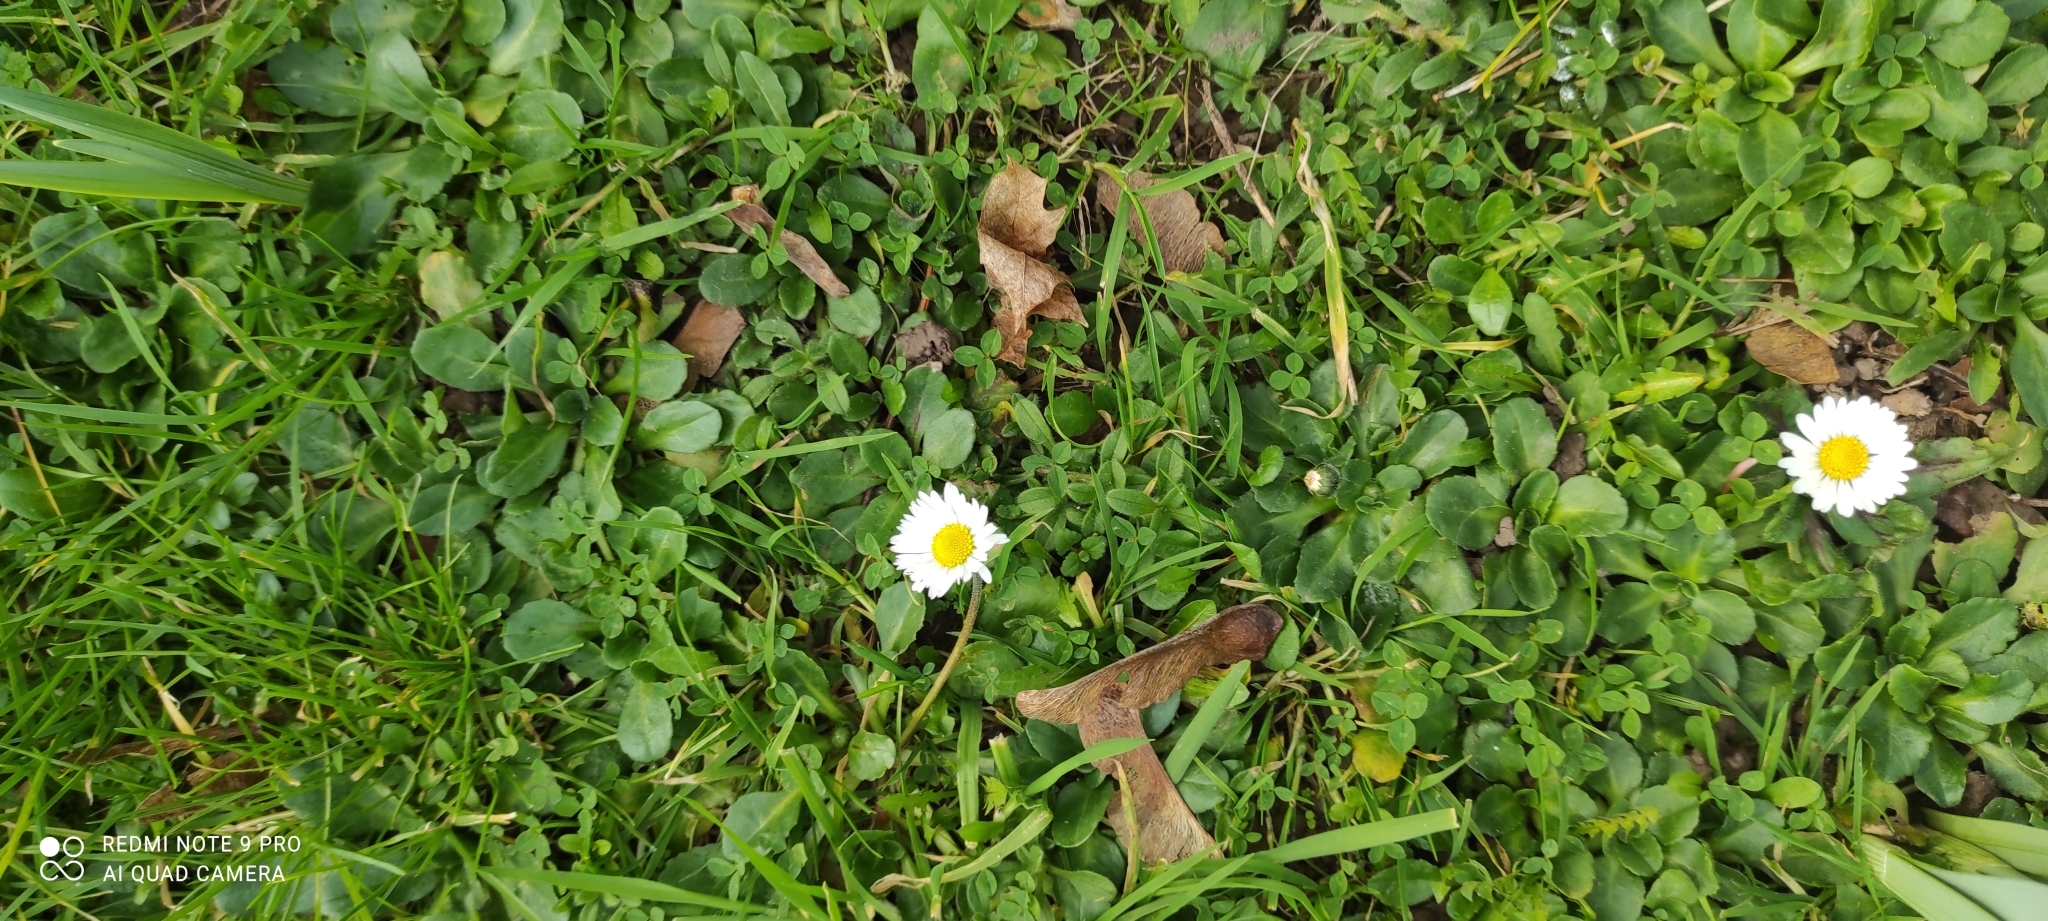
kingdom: Plantae
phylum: Tracheophyta
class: Magnoliopsida
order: Asterales
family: Asteraceae
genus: Bellis
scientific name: Bellis perennis
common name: Lawndaisy
